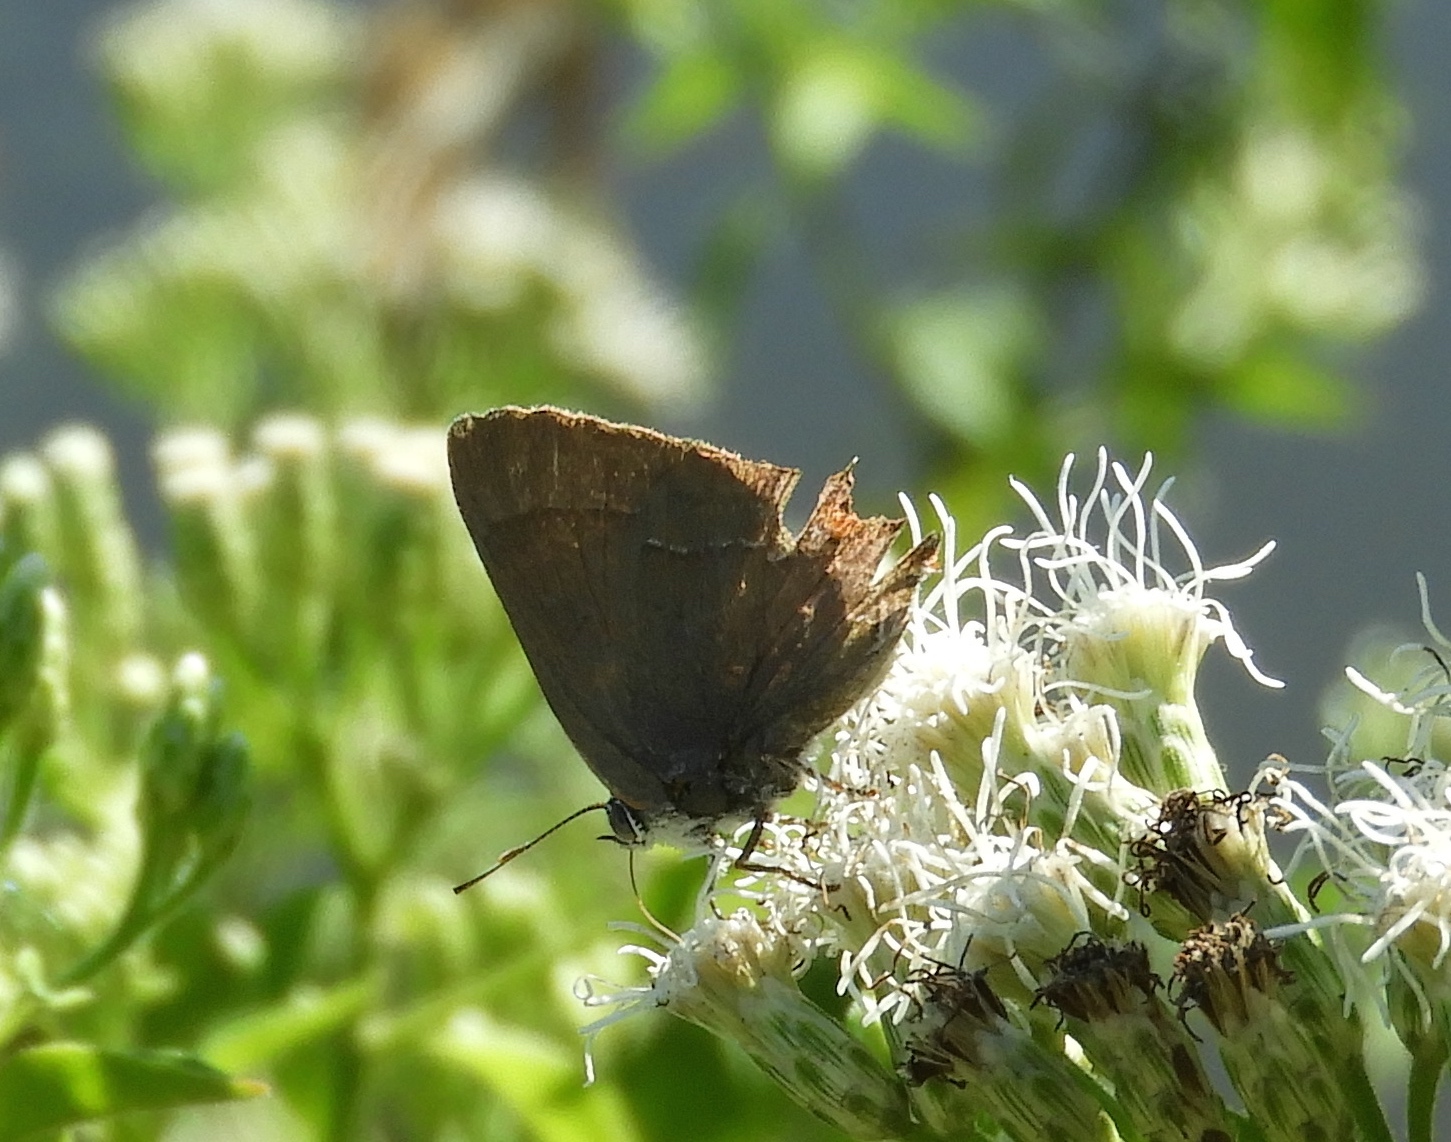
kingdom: Animalia
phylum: Arthropoda
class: Insecta
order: Lepidoptera
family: Lycaenidae
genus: Rekoa
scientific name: Rekoa
